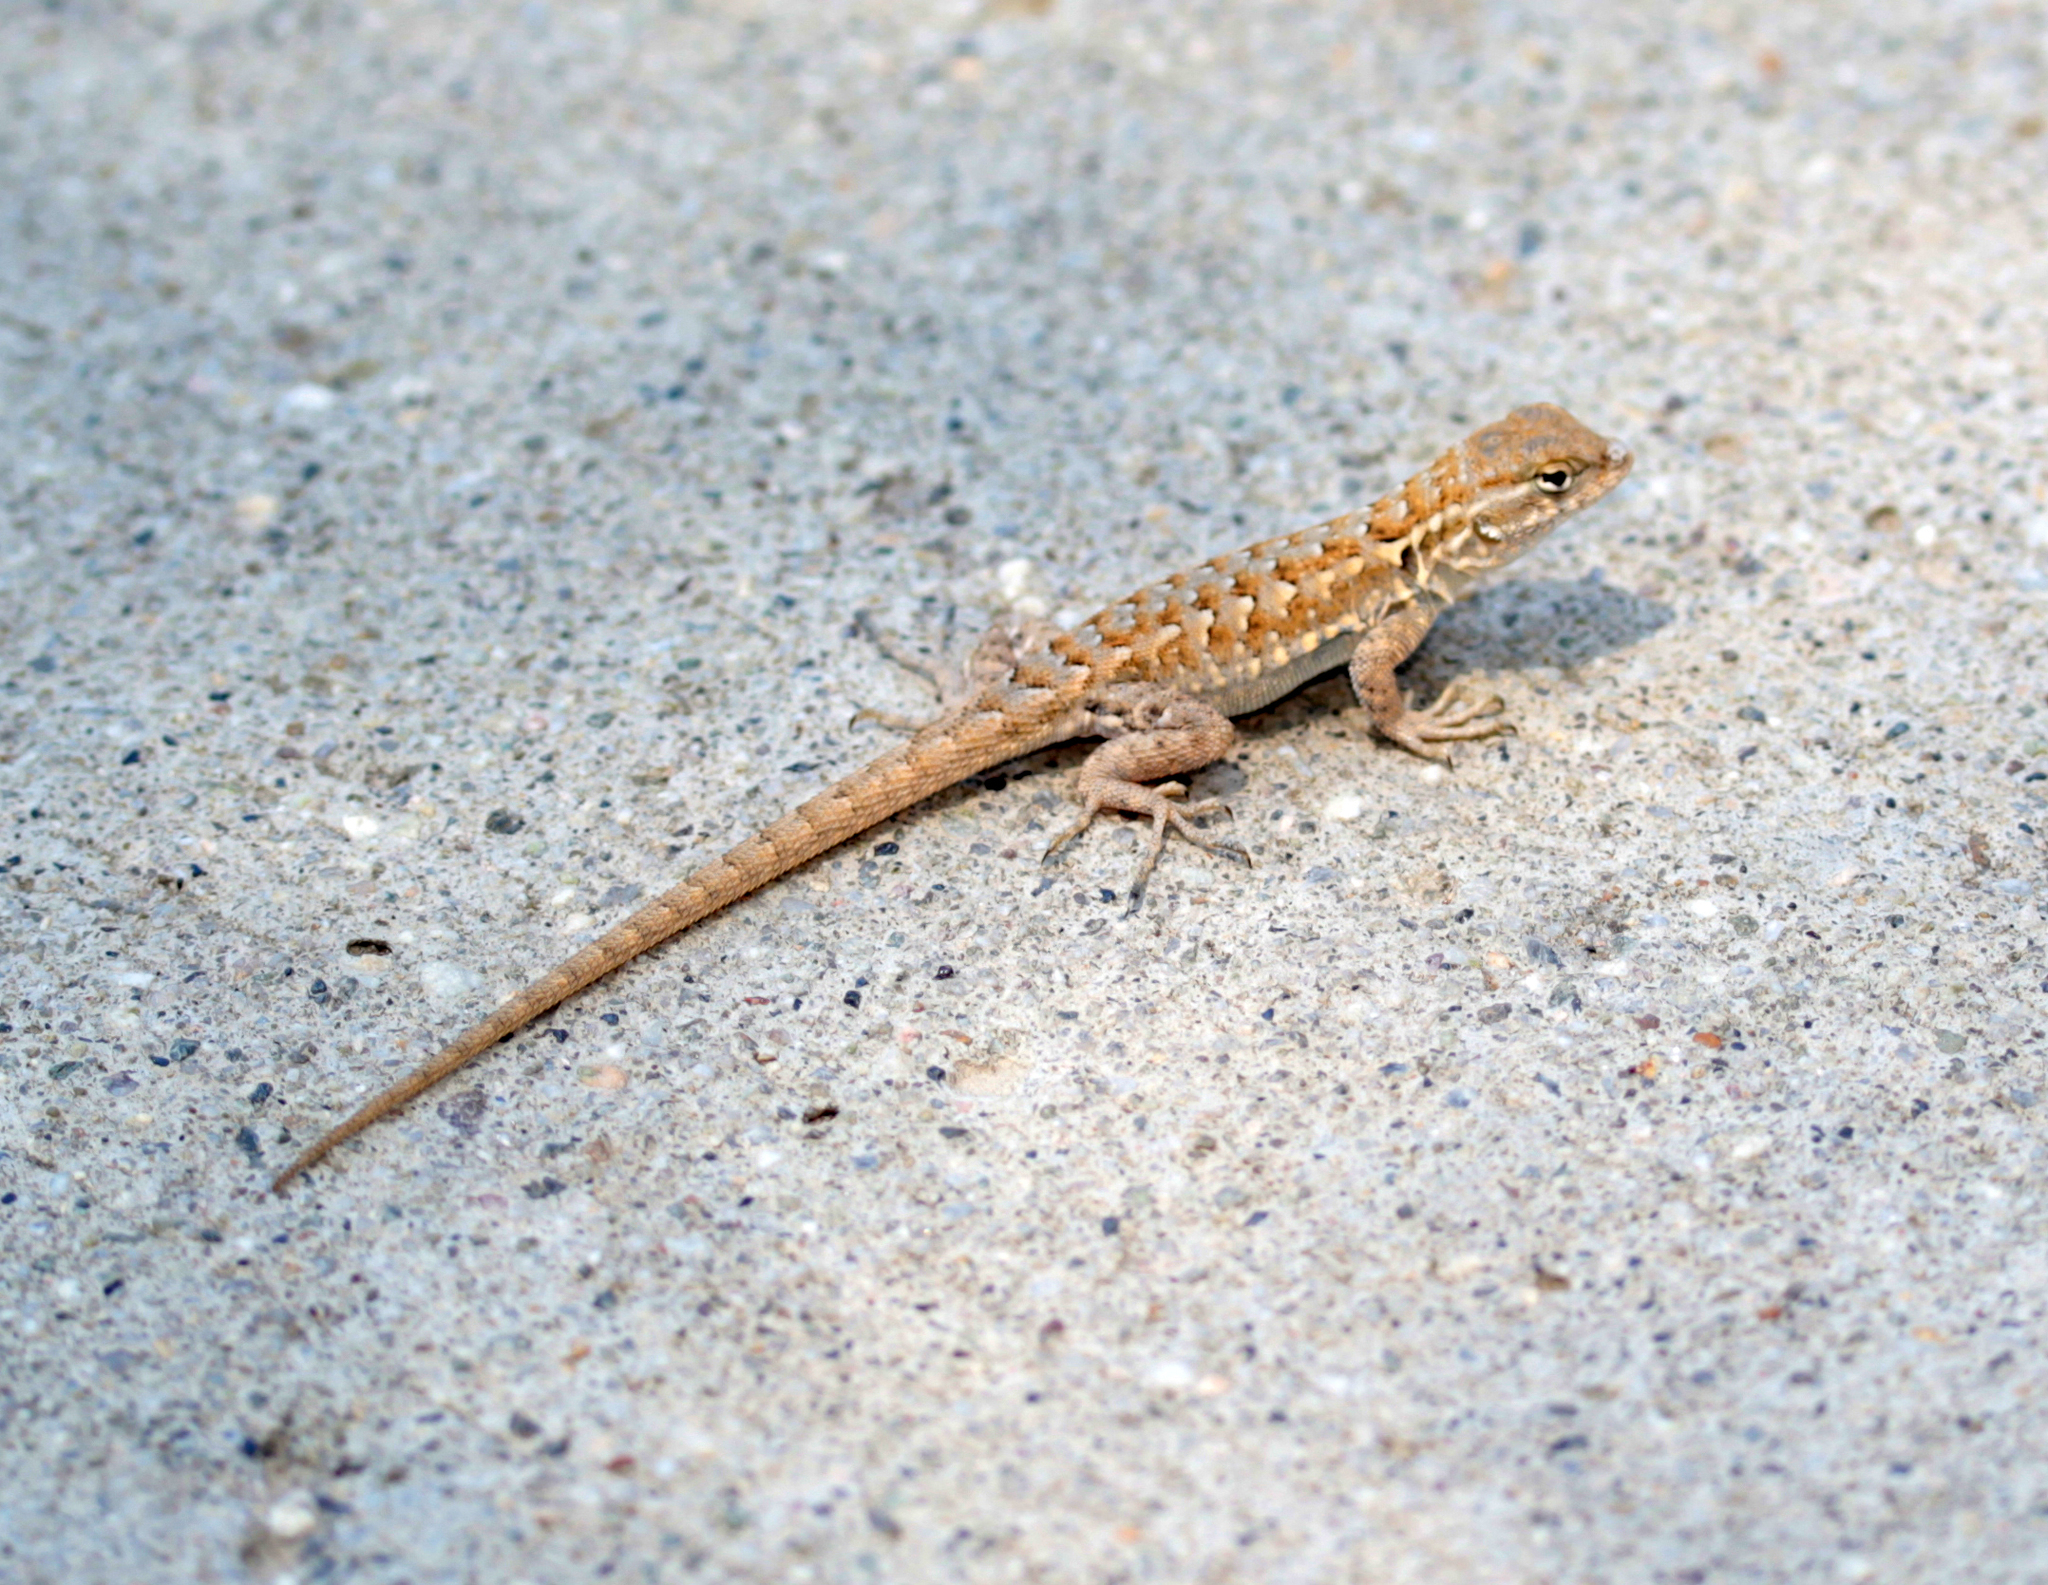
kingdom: Animalia
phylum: Chordata
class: Squamata
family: Phrynosomatidae
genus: Uta
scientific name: Uta stansburiana
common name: Side-blotched lizard
